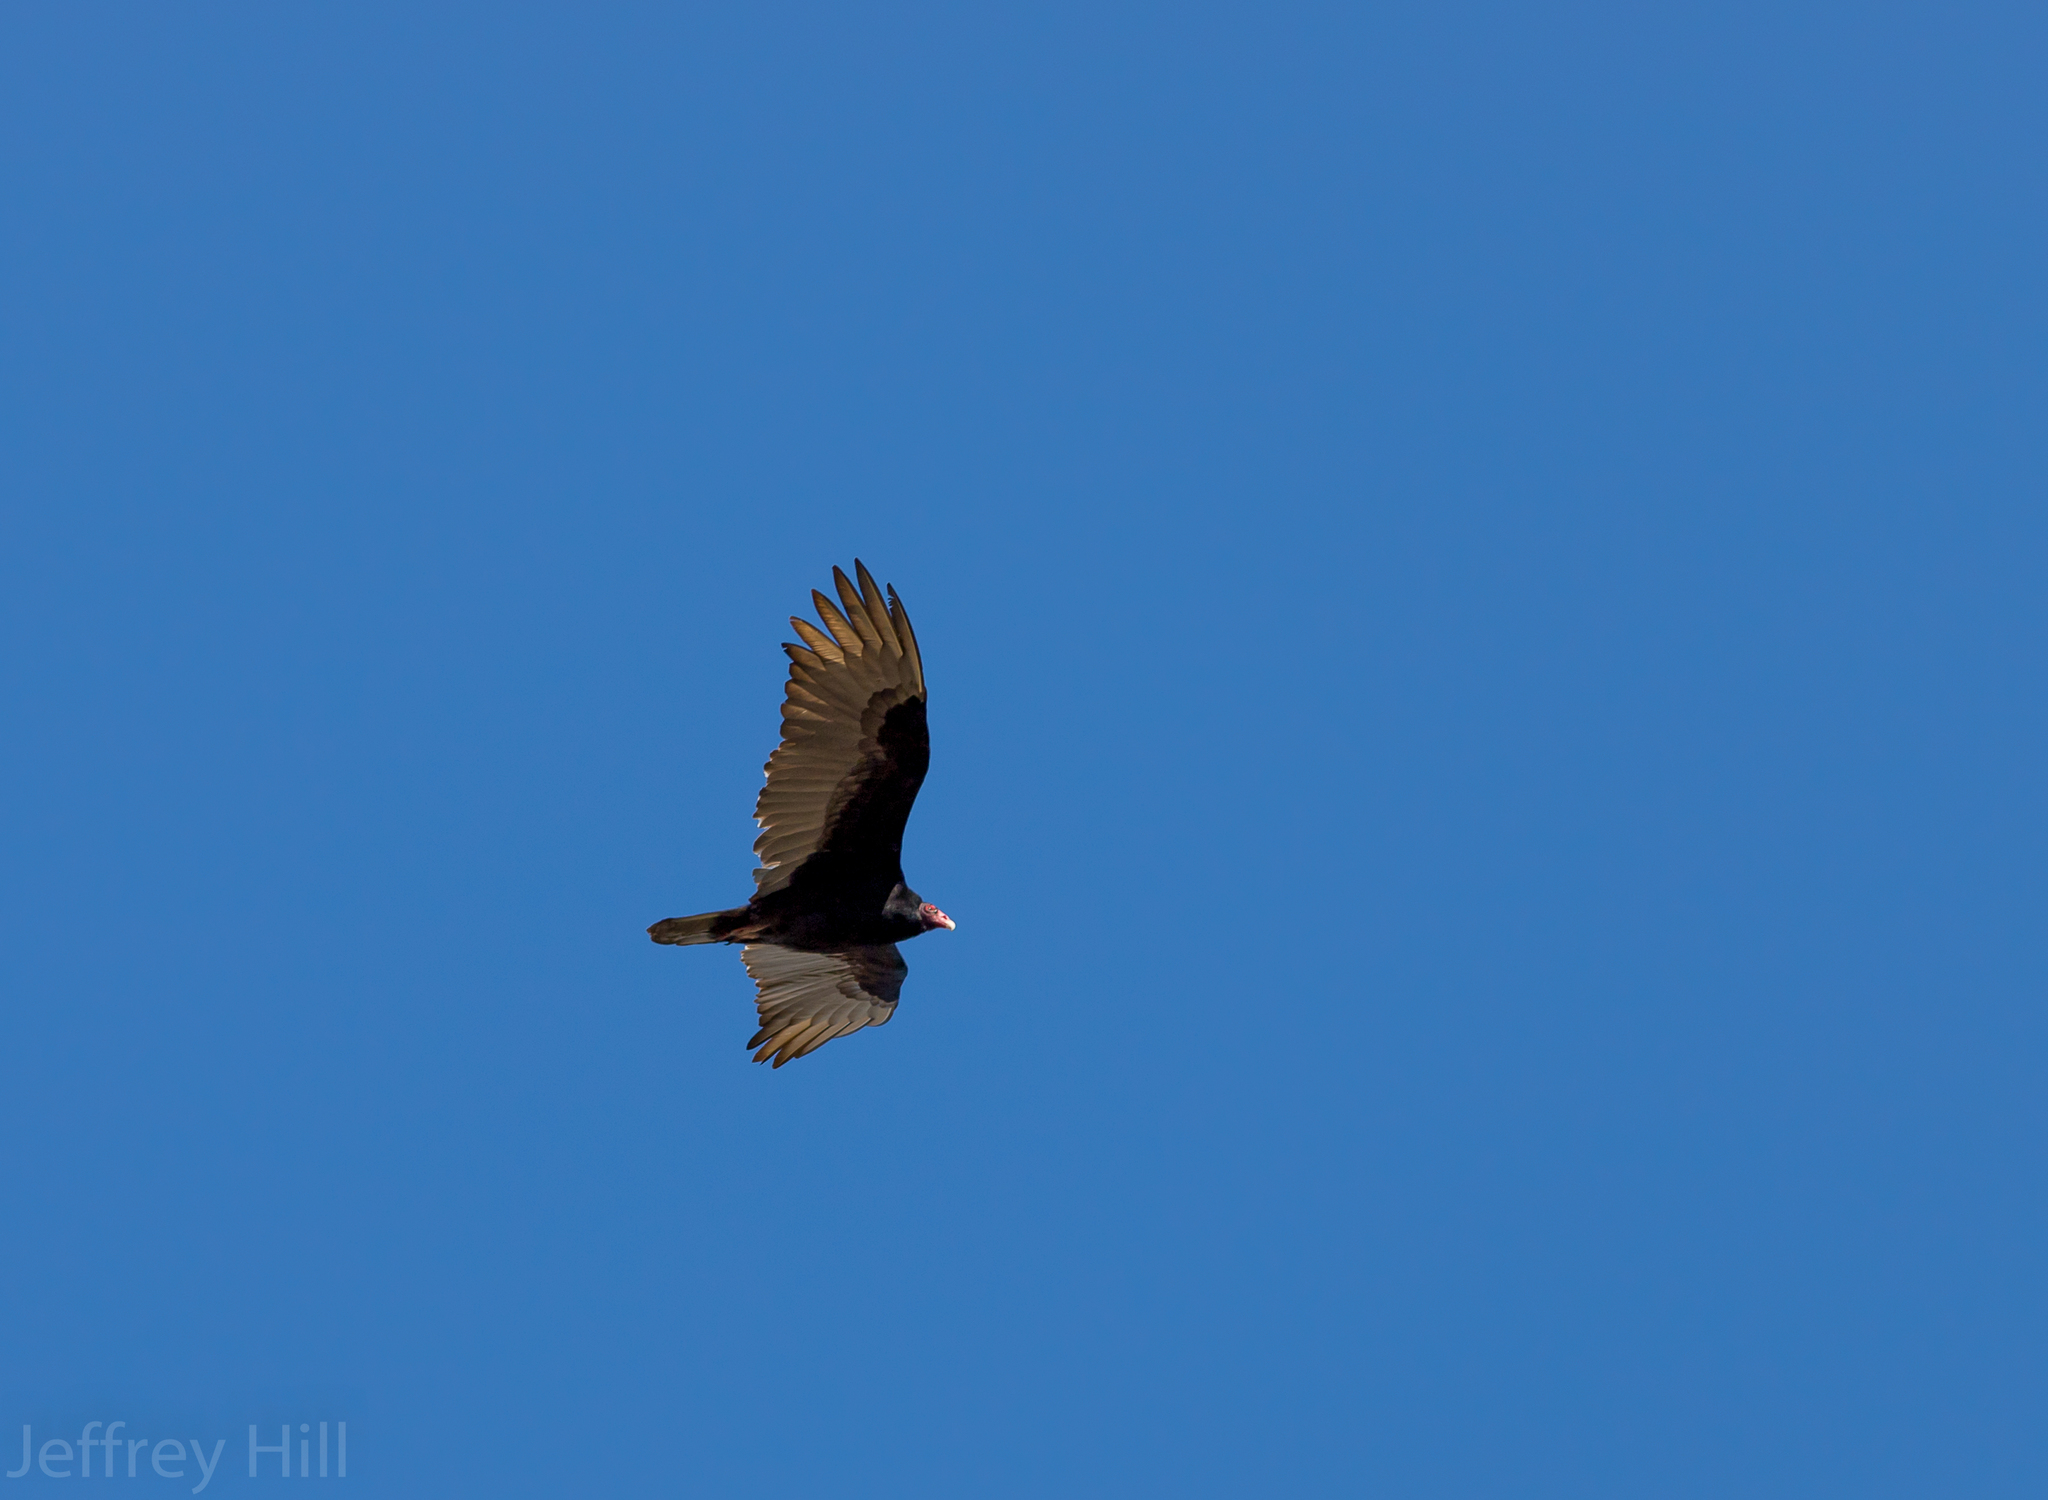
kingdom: Animalia
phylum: Chordata
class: Aves
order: Accipitriformes
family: Cathartidae
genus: Cathartes
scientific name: Cathartes aura
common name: Turkey vulture
